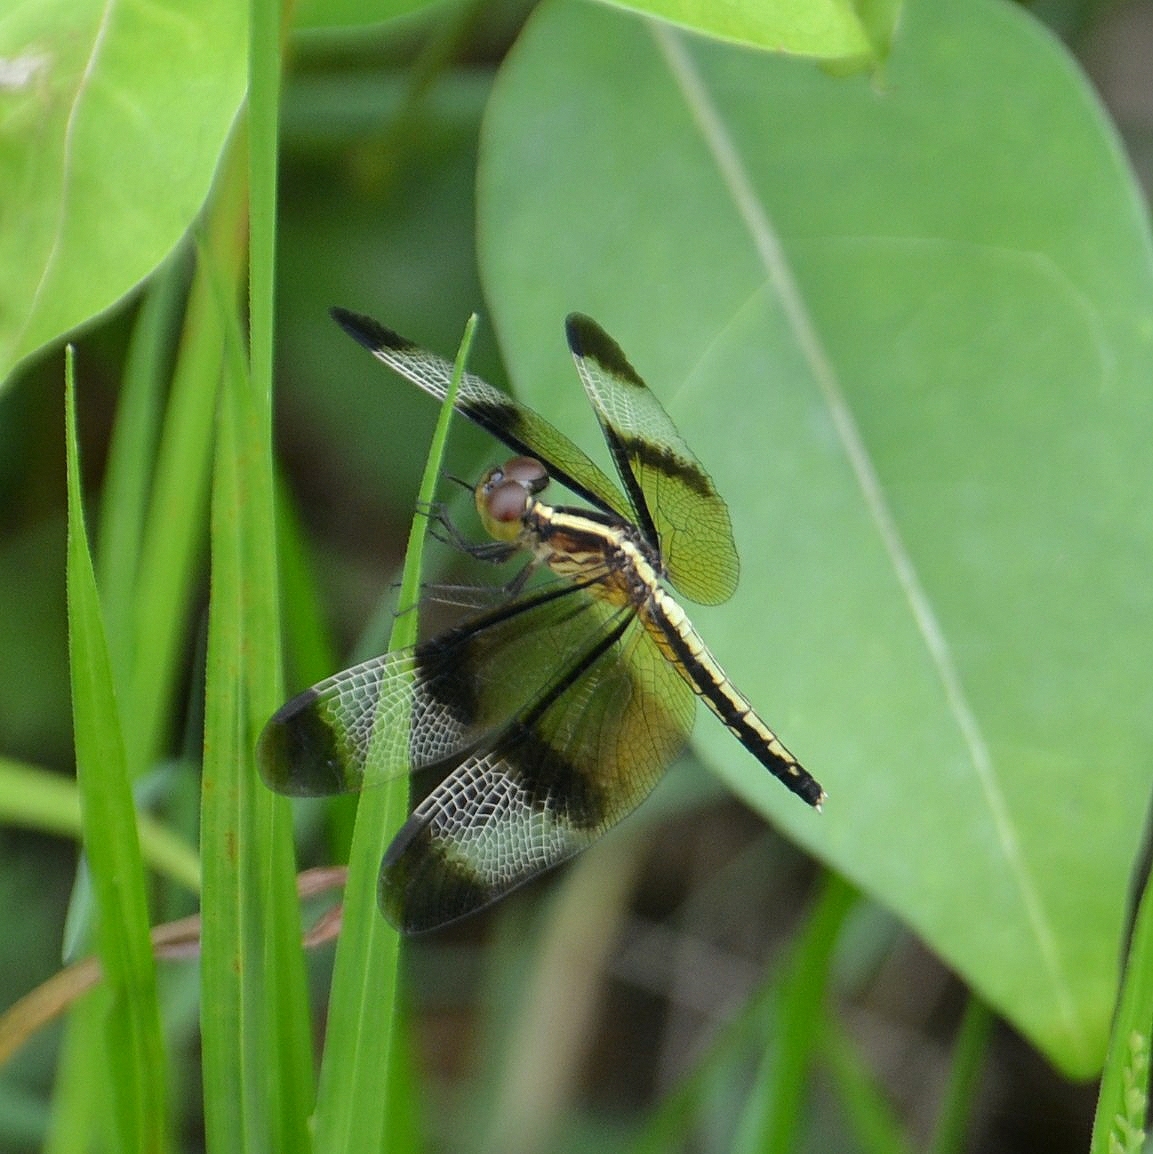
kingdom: Animalia
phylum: Arthropoda
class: Insecta
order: Odonata
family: Libellulidae
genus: Neurothemis
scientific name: Neurothemis tullia
